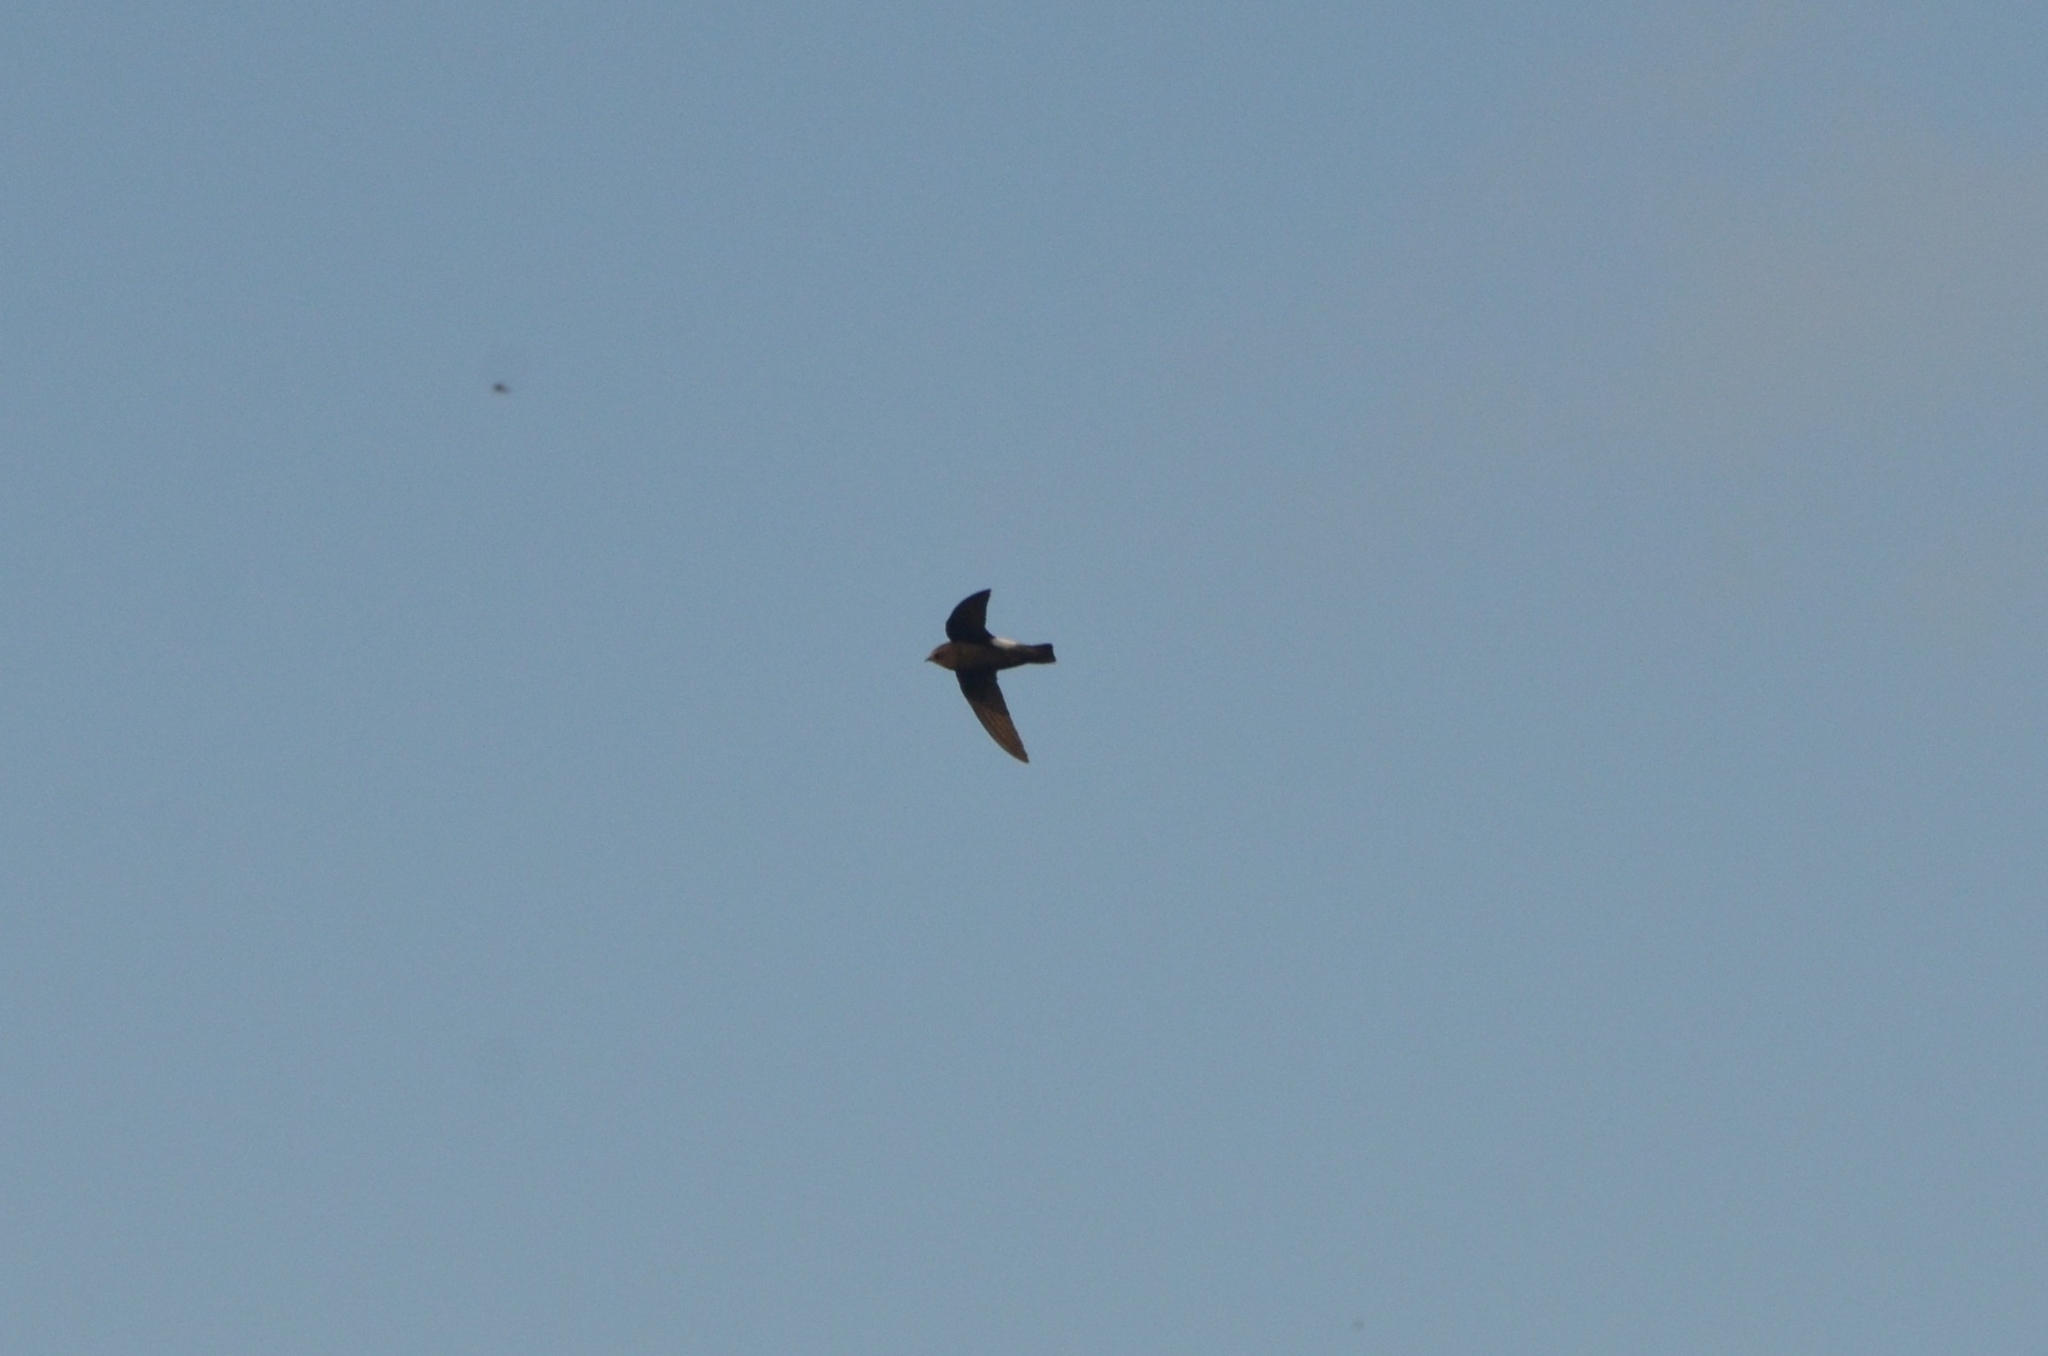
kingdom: Animalia
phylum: Chordata
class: Aves
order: Apodiformes
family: Apodidae
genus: Apus
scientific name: Apus affinis
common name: Little swift
